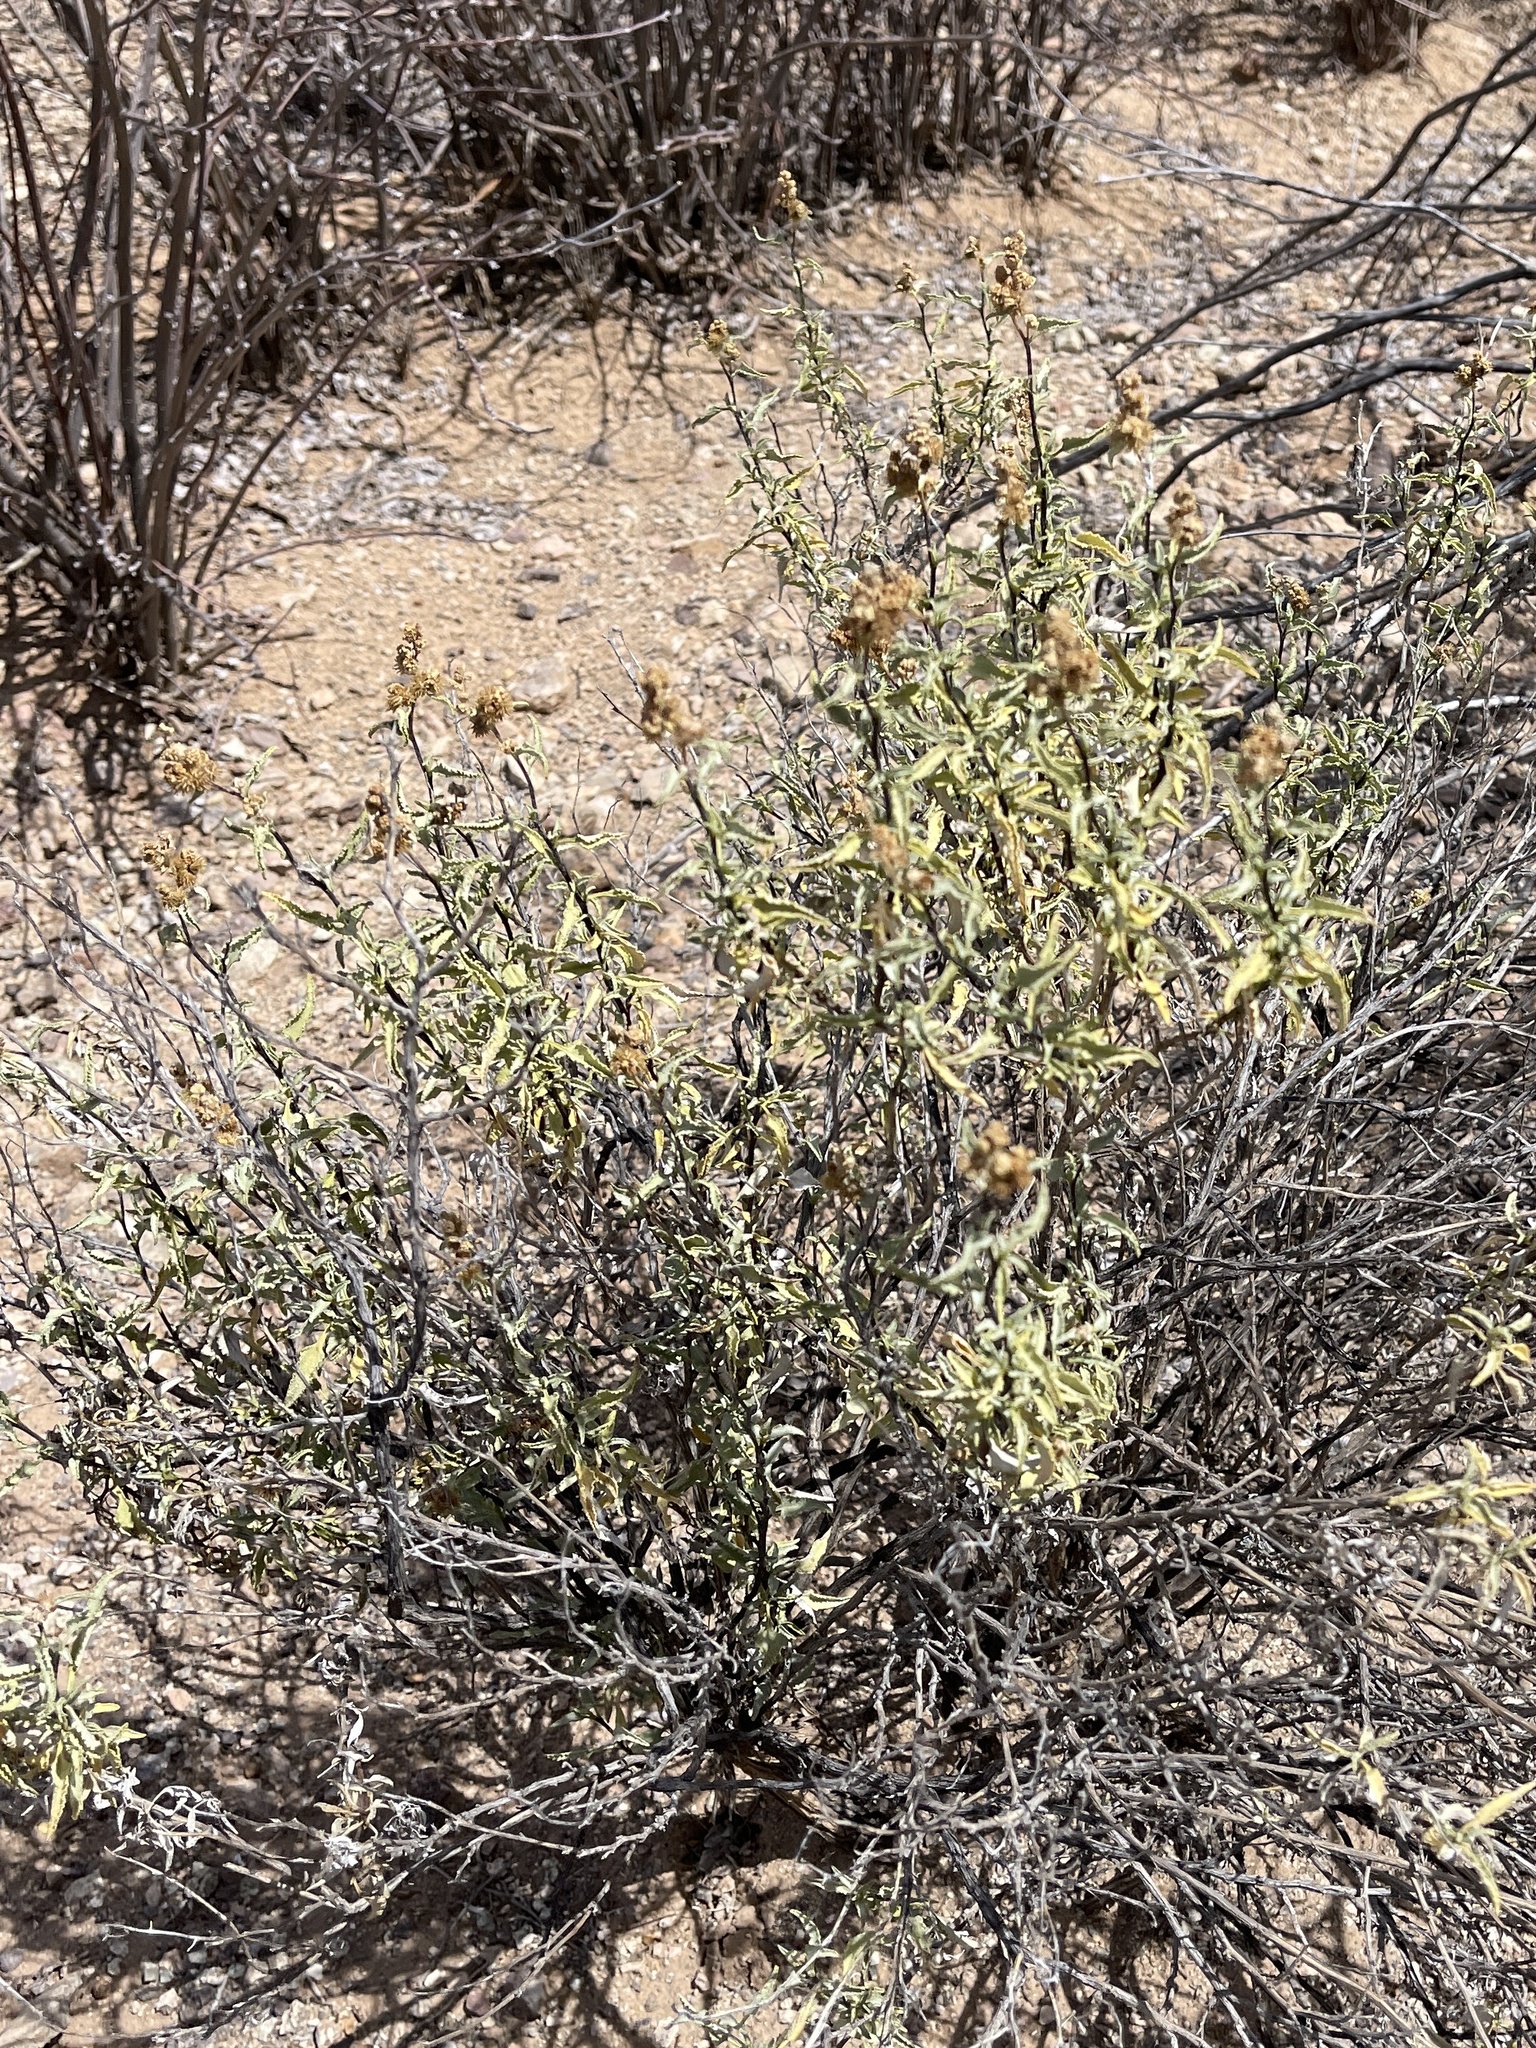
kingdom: Plantae
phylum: Tracheophyta
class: Magnoliopsida
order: Asterales
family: Asteraceae
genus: Ambrosia
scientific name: Ambrosia deltoidea
